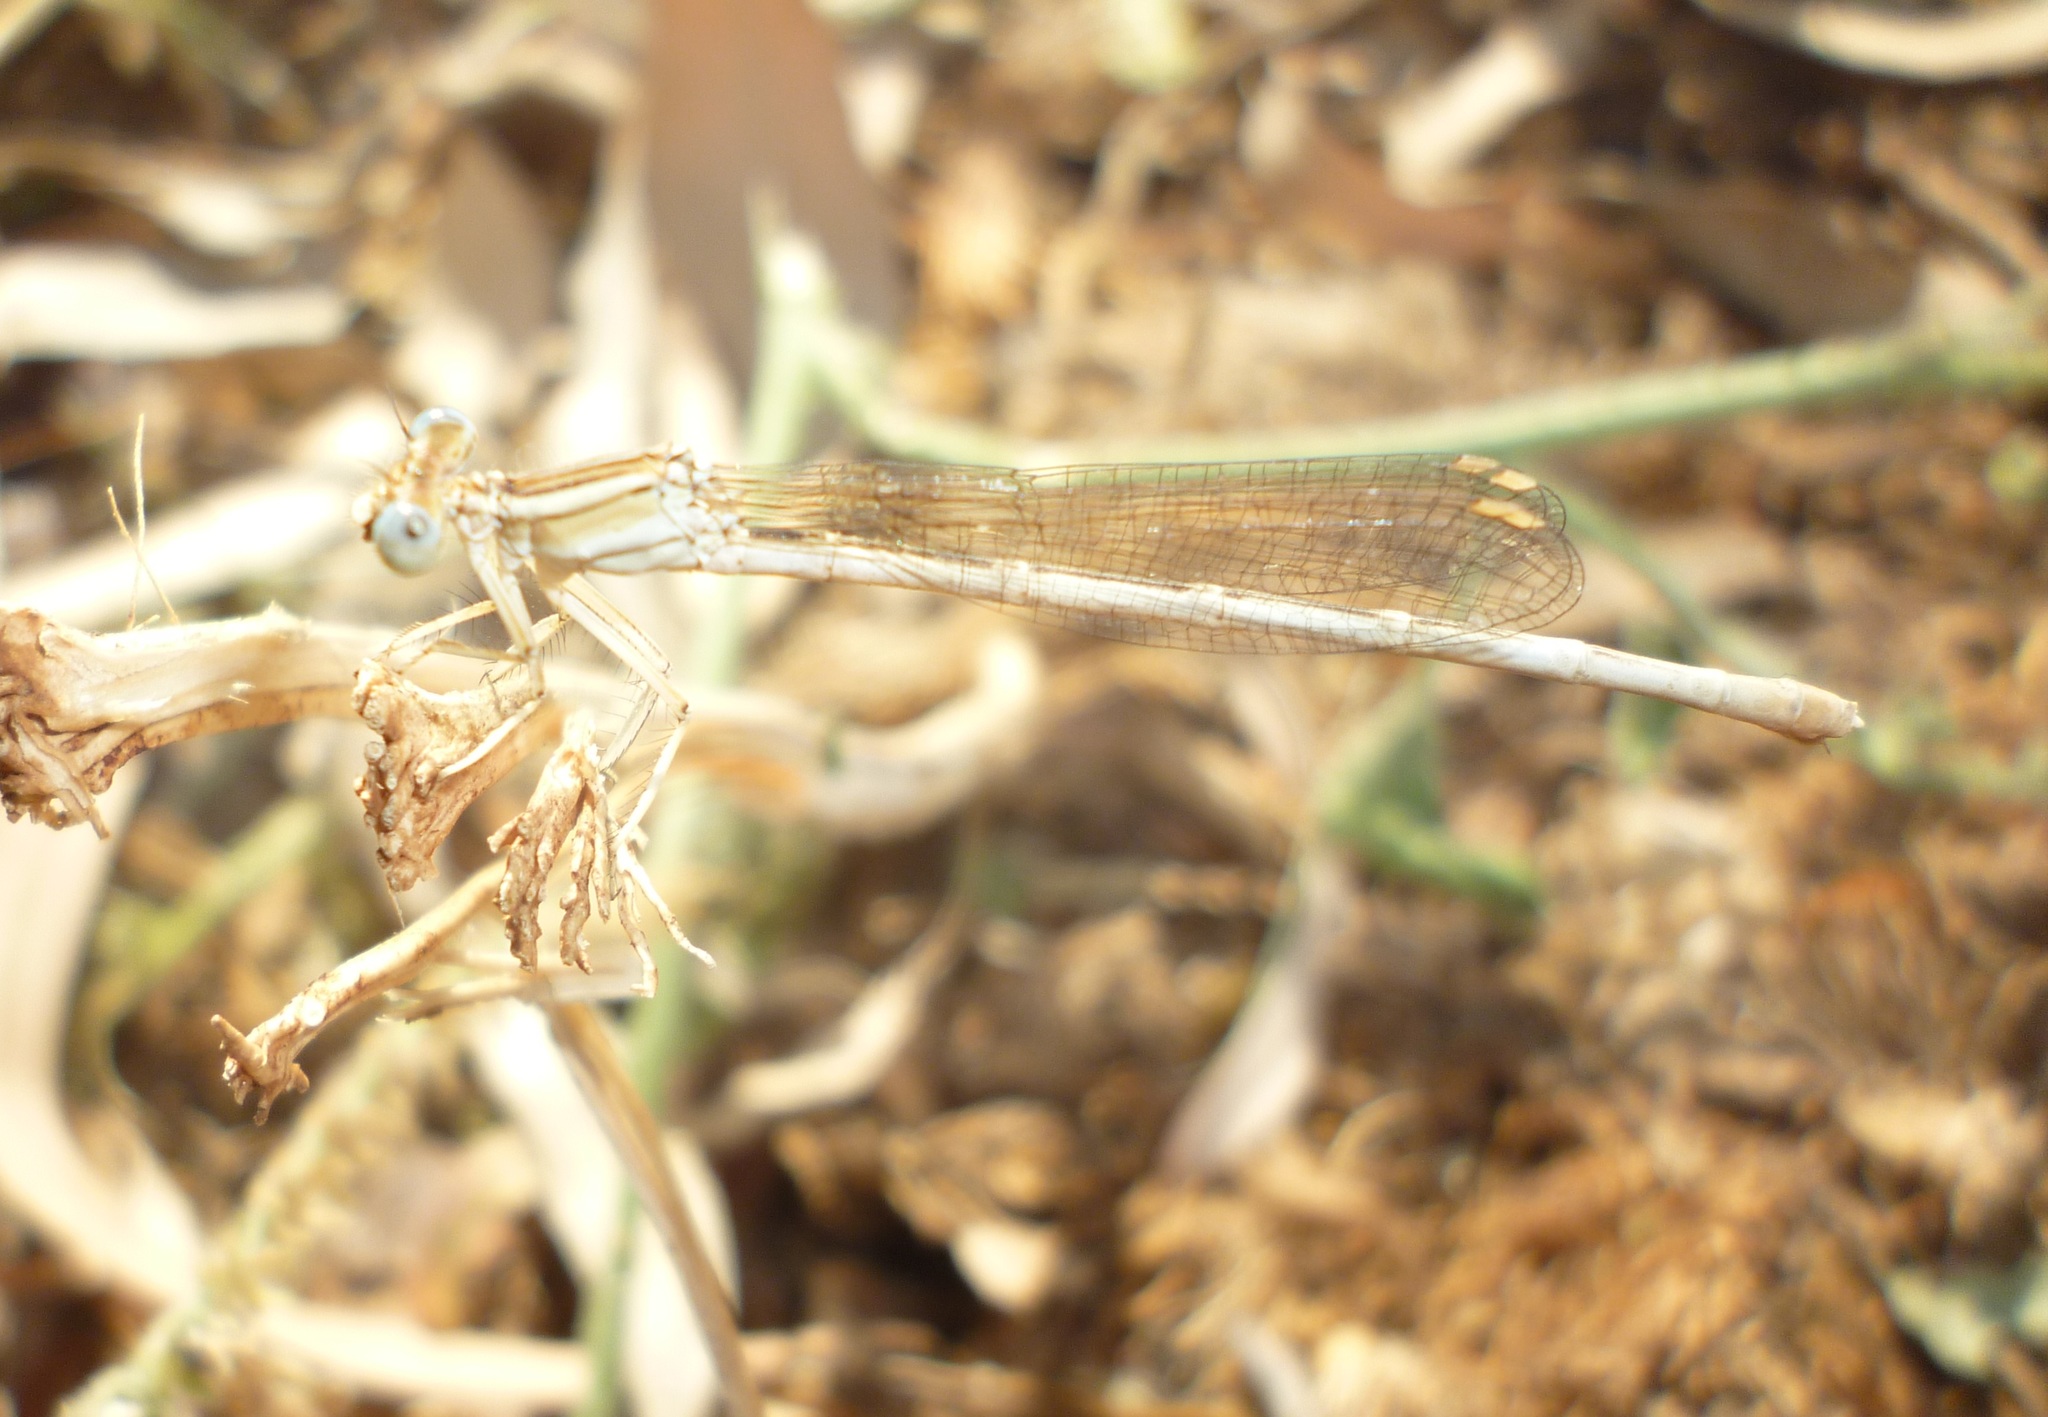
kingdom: Animalia
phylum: Arthropoda
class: Insecta
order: Odonata
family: Platycnemididae
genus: Platycnemis
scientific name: Platycnemis dealbata
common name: Ivory featherleg
